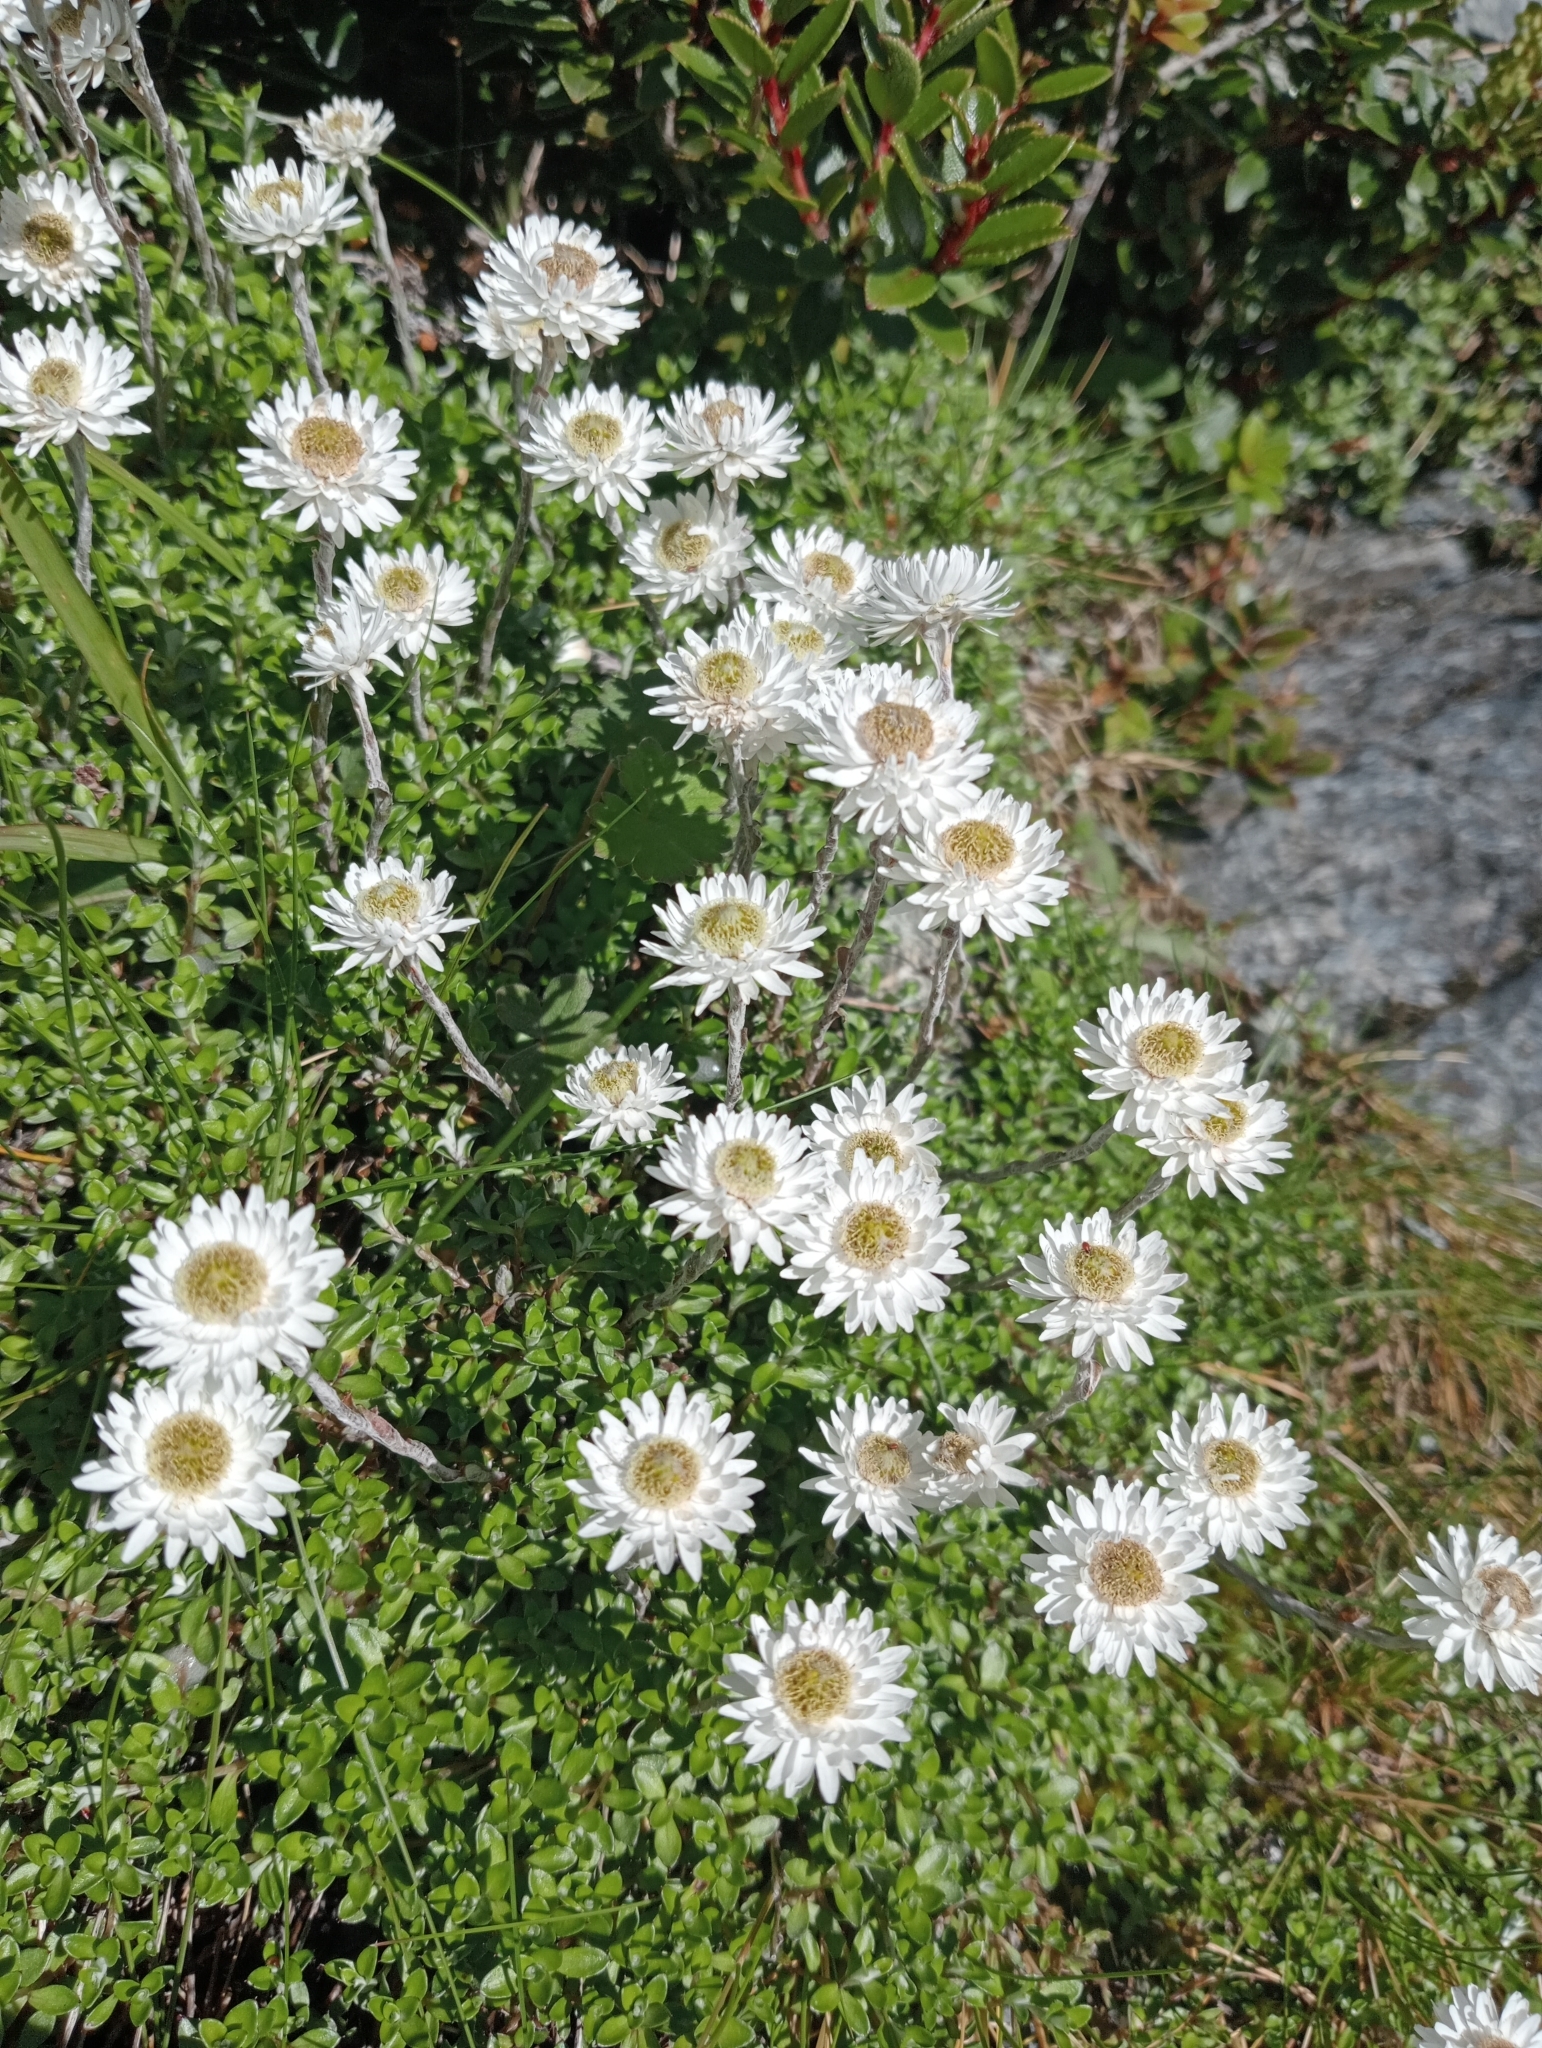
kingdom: Plantae
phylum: Tracheophyta
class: Magnoliopsida
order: Asterales
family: Asteraceae
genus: Anaphalioides
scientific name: Anaphalioides bellidioides
